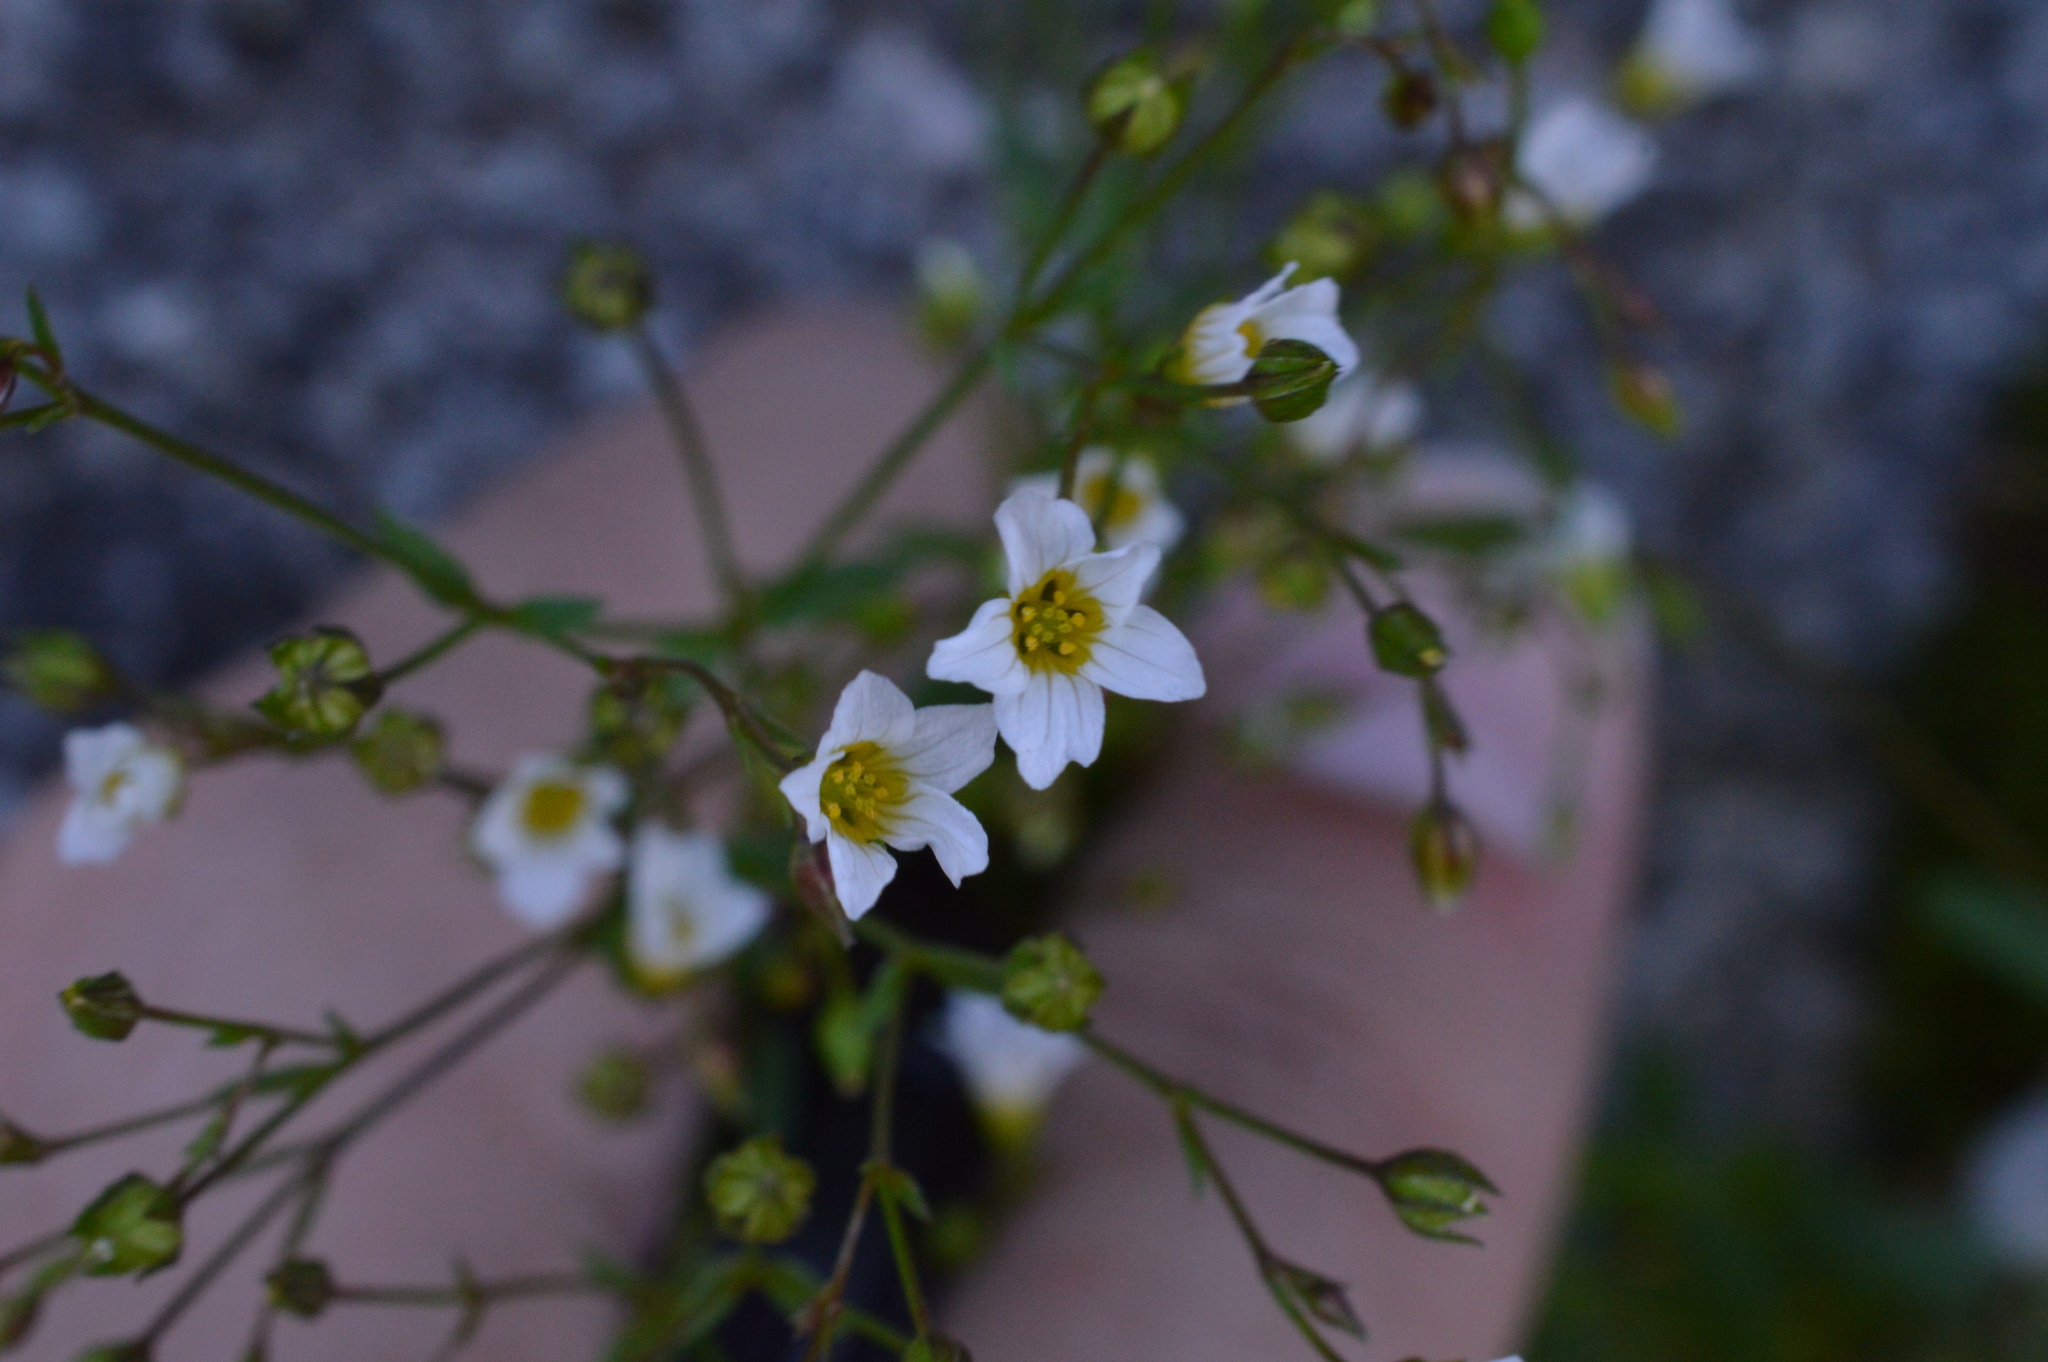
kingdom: Plantae
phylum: Tracheophyta
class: Magnoliopsida
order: Malpighiales
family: Linaceae
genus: Linum
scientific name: Linum catharticum
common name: Fairy flax
